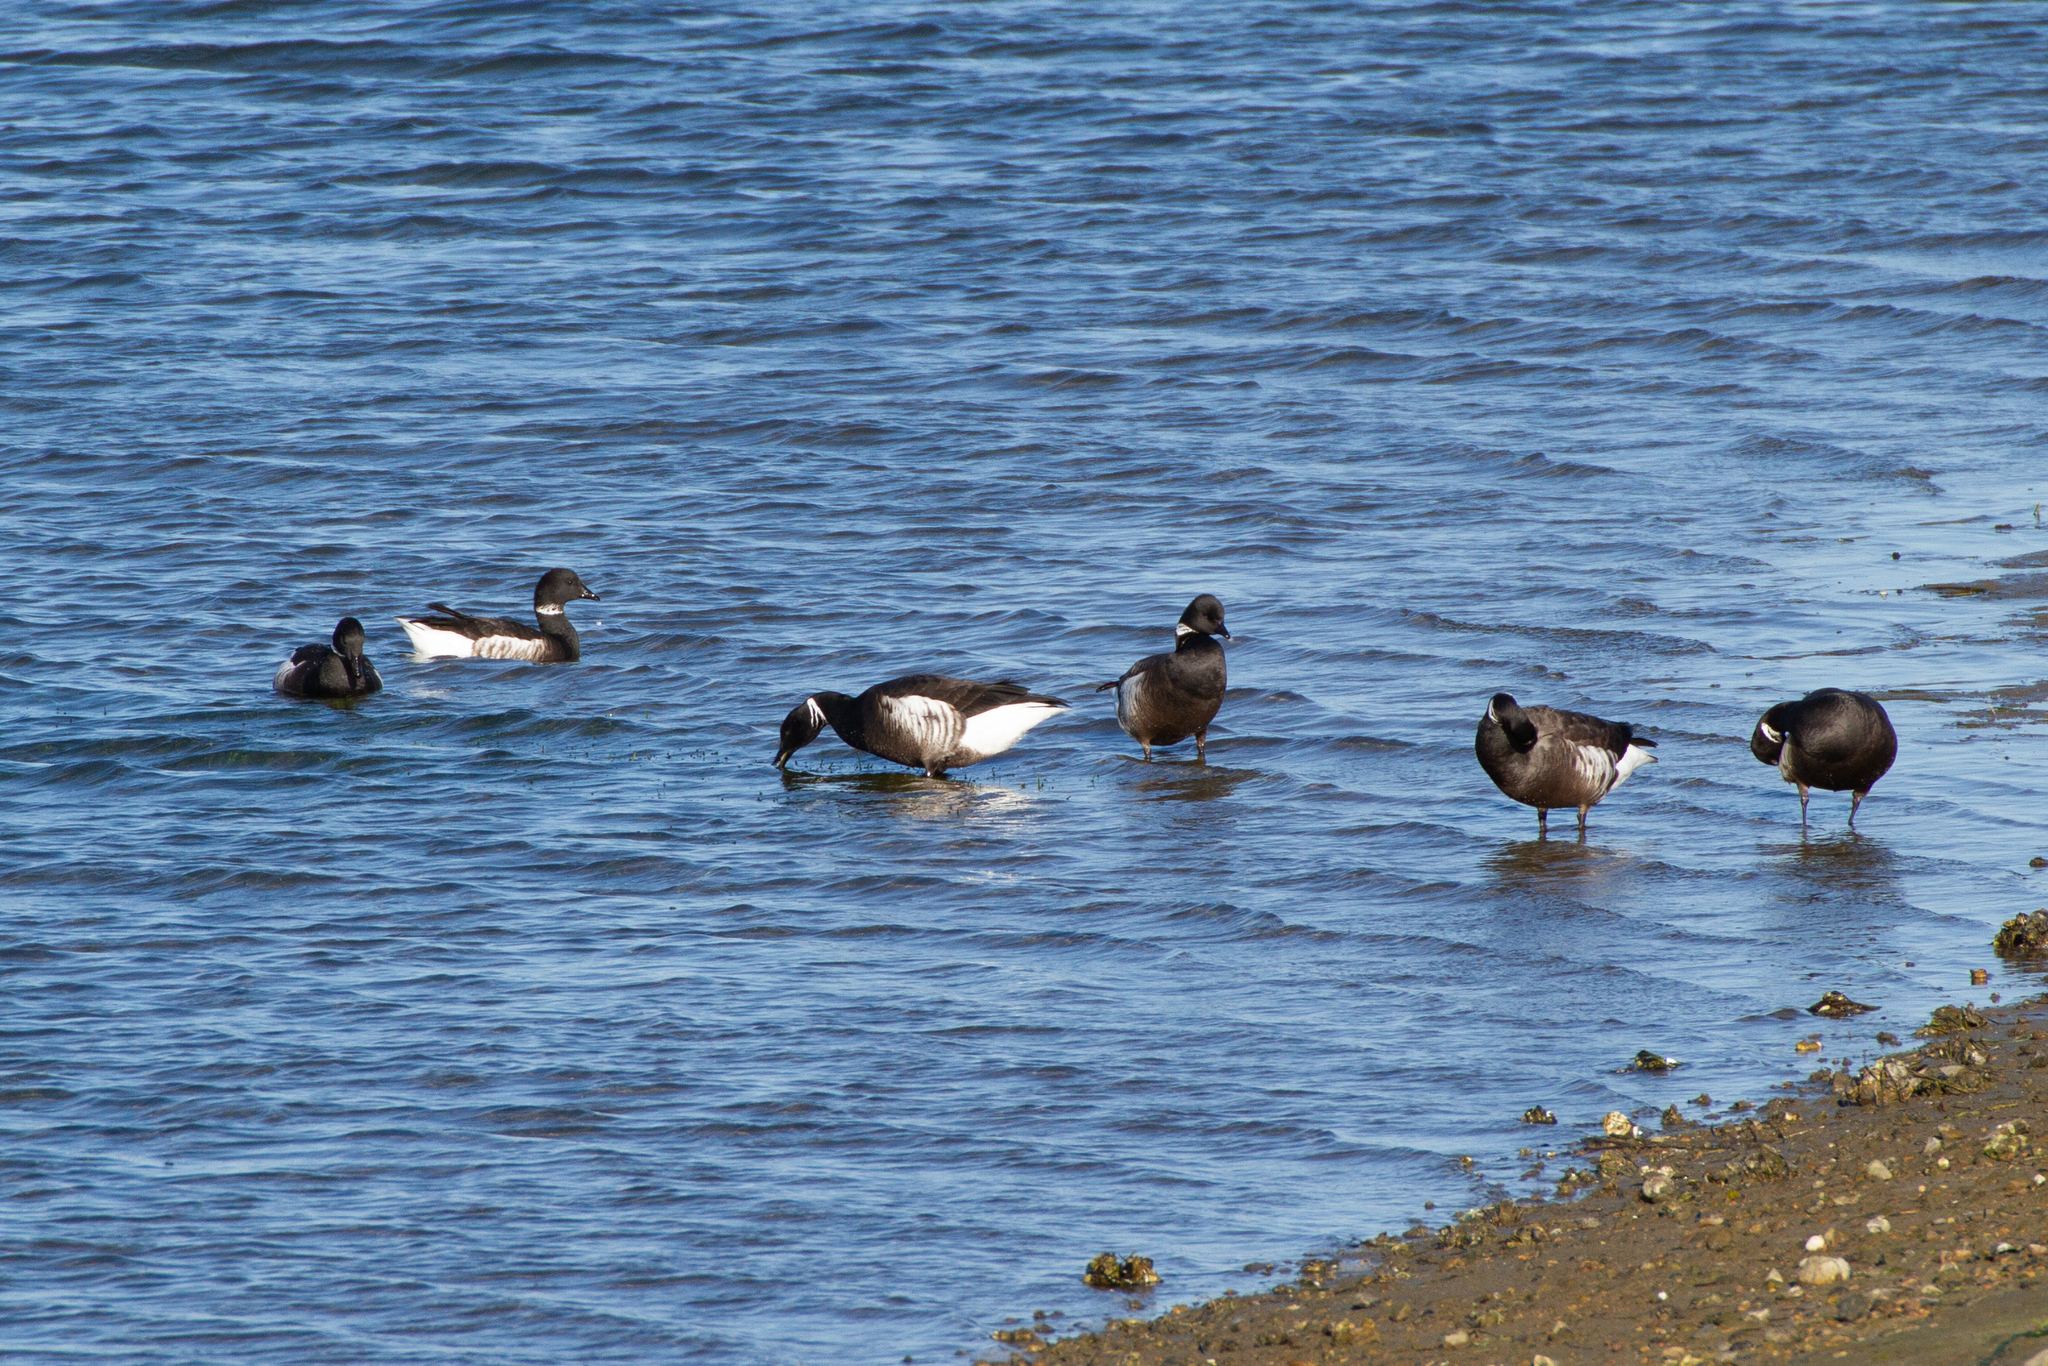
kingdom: Animalia
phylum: Chordata
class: Aves
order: Anseriformes
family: Anatidae
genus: Branta
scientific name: Branta bernicla
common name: Brant goose
